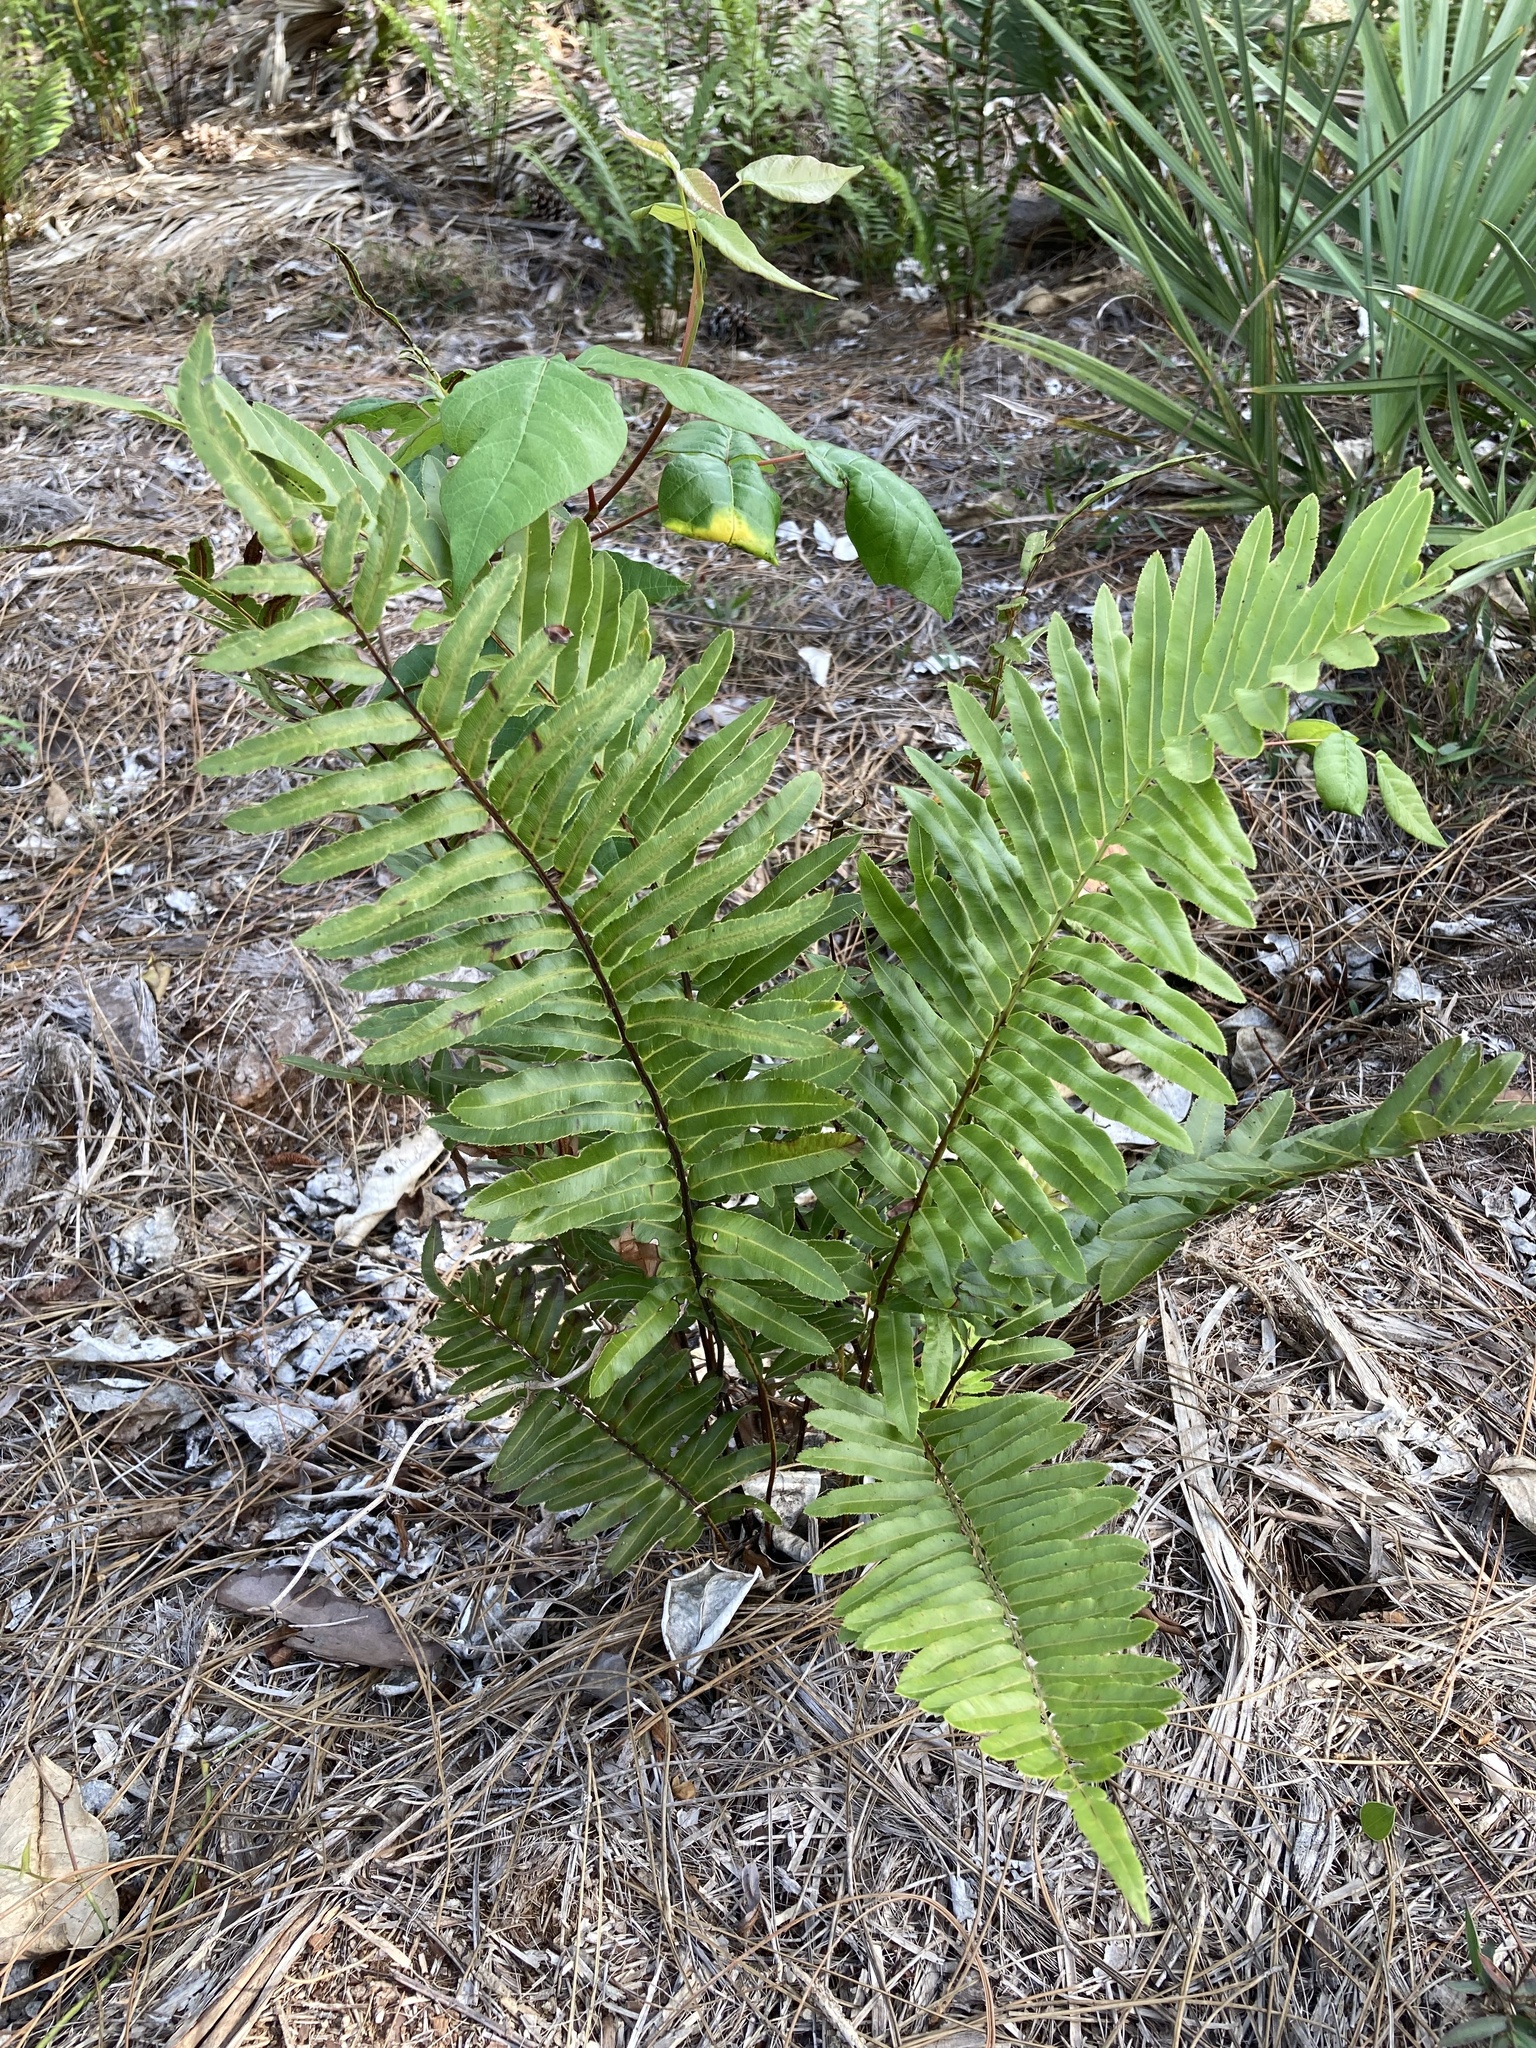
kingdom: Plantae
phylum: Tracheophyta
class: Polypodiopsida
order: Polypodiales
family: Blechnaceae
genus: Telmatoblechnum
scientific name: Telmatoblechnum serrulatum
